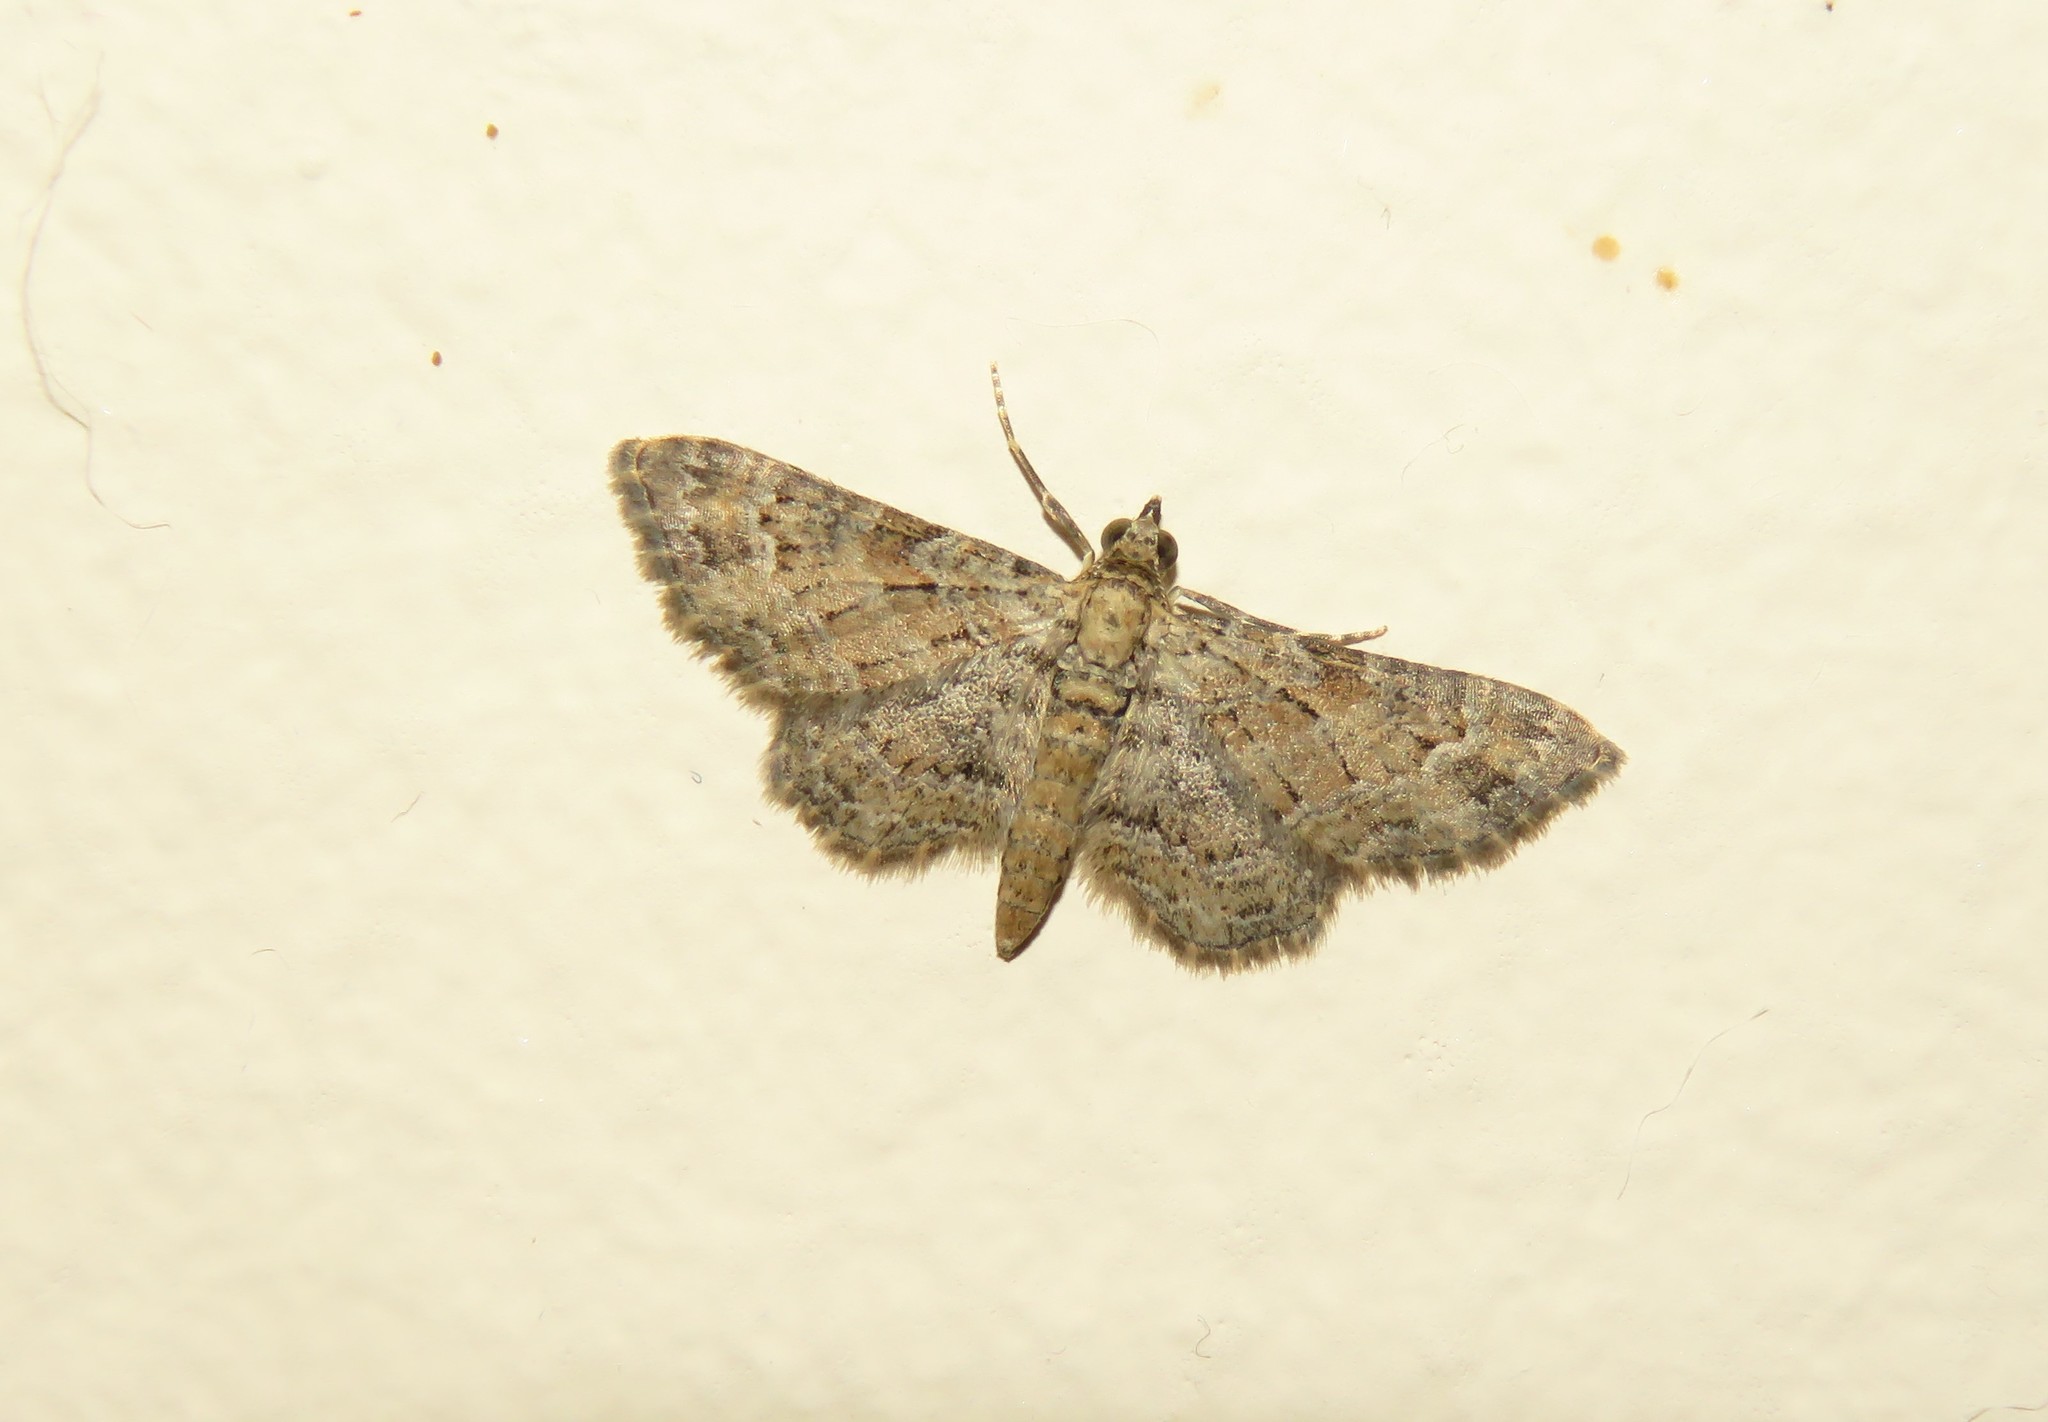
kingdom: Animalia
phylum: Arthropoda
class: Insecta
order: Lepidoptera
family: Geometridae
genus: Gymnoscelis
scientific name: Gymnoscelis rufifasciata
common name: Double-striped pug
